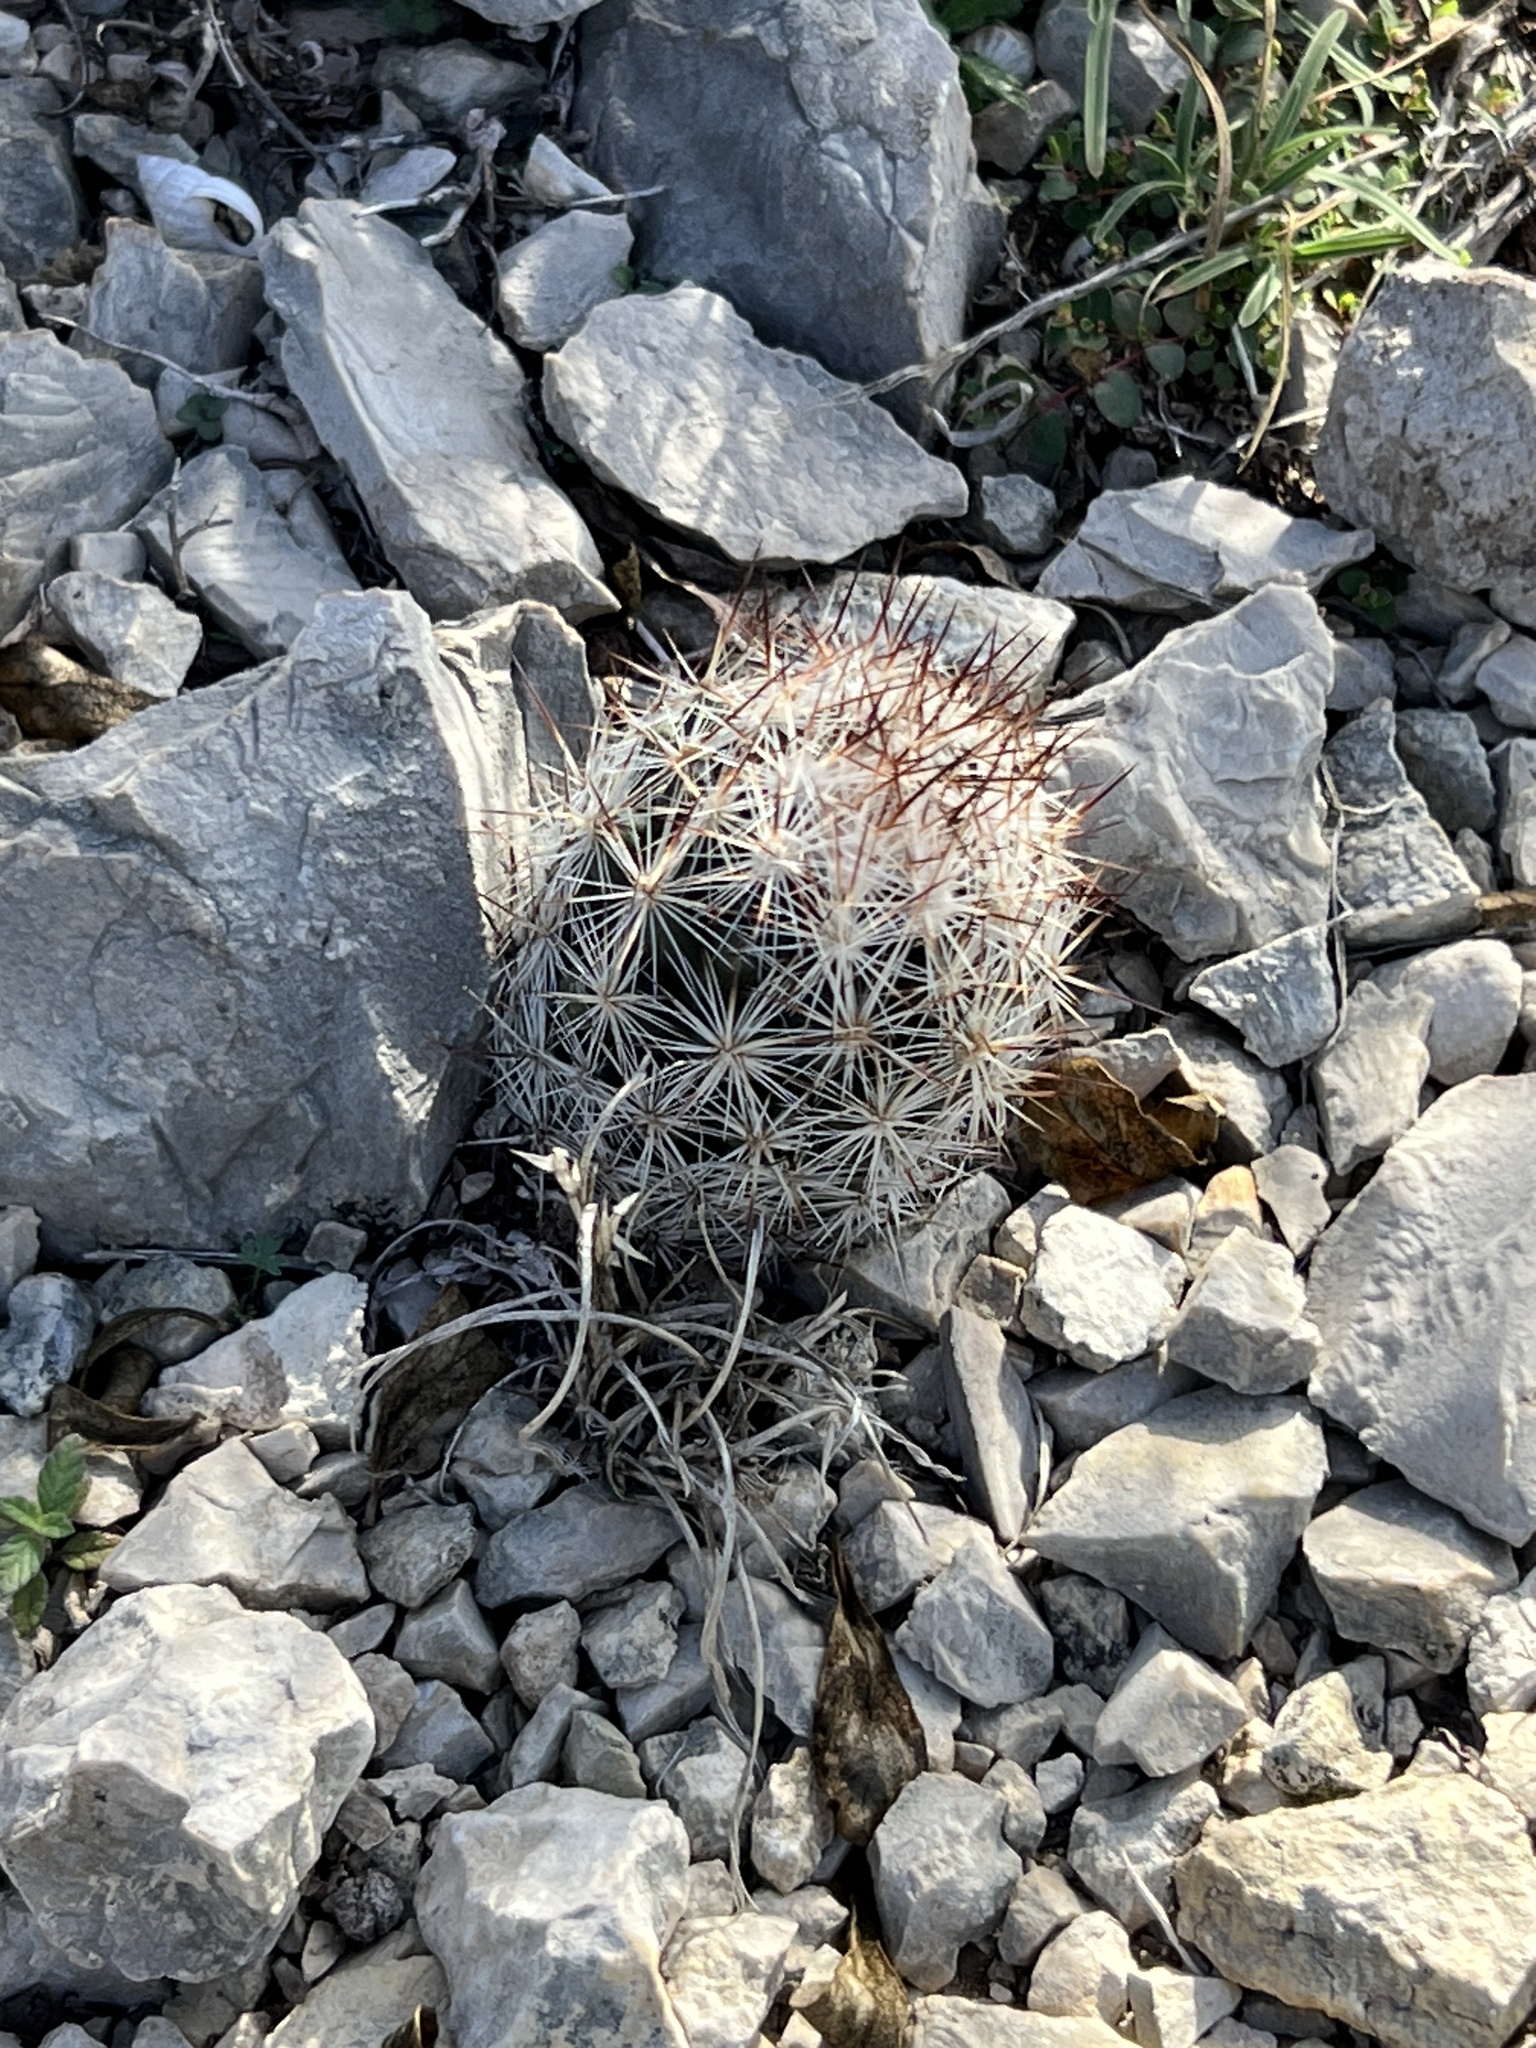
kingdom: Plantae
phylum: Tracheophyta
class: Magnoliopsida
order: Caryophyllales
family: Cactaceae
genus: Pelecyphora
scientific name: Pelecyphora emskoetteriana
